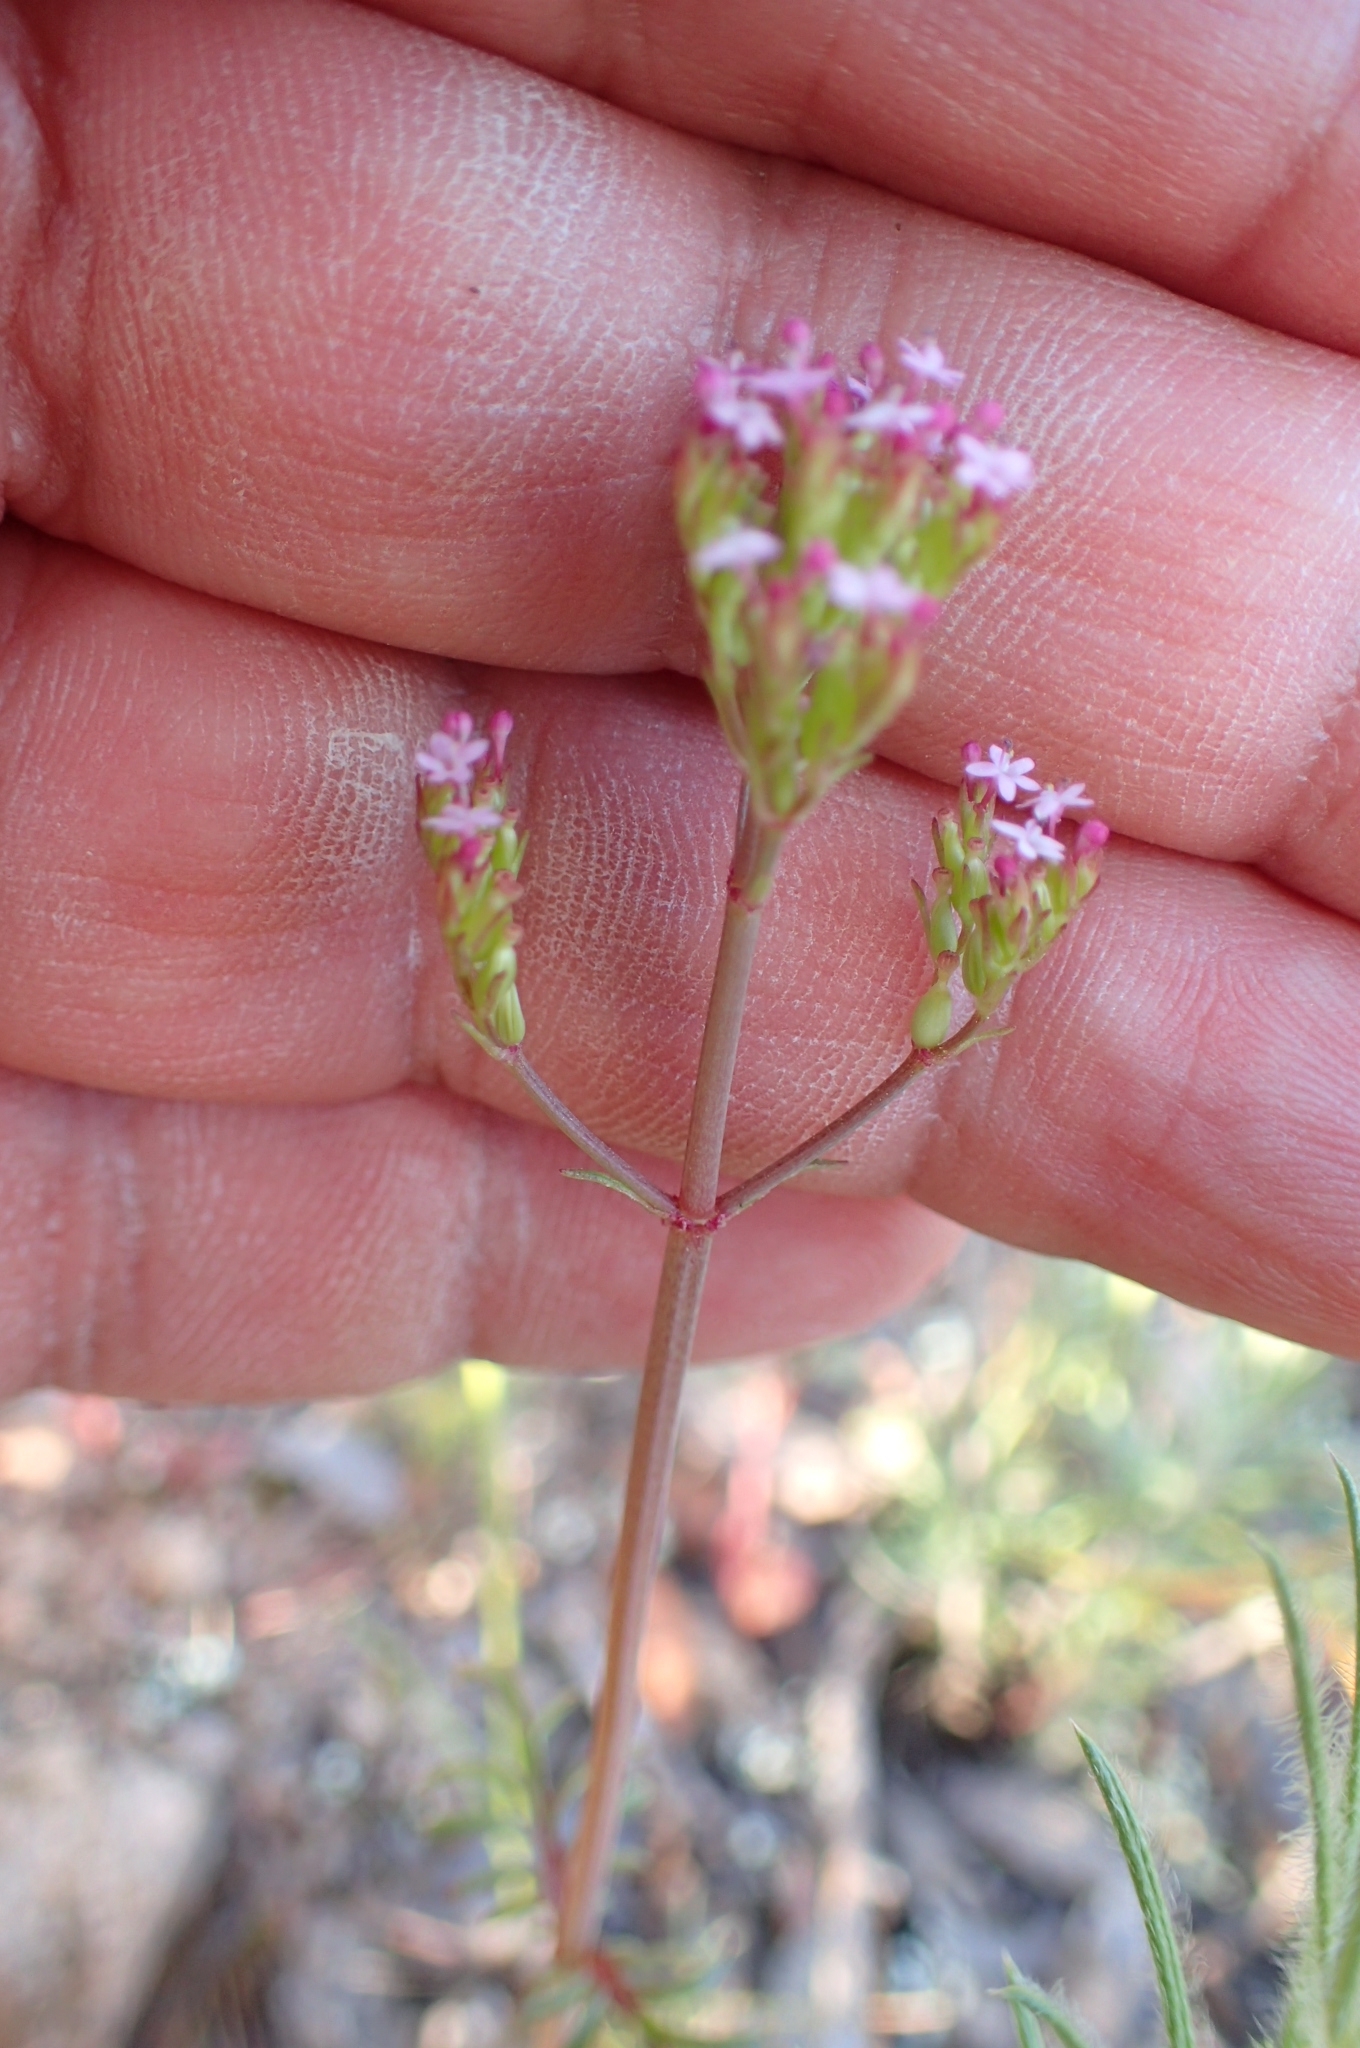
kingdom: Plantae
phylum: Tracheophyta
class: Magnoliopsida
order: Dipsacales
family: Caprifoliaceae
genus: Centranthus
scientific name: Centranthus calcitrapae
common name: Annual valerian
